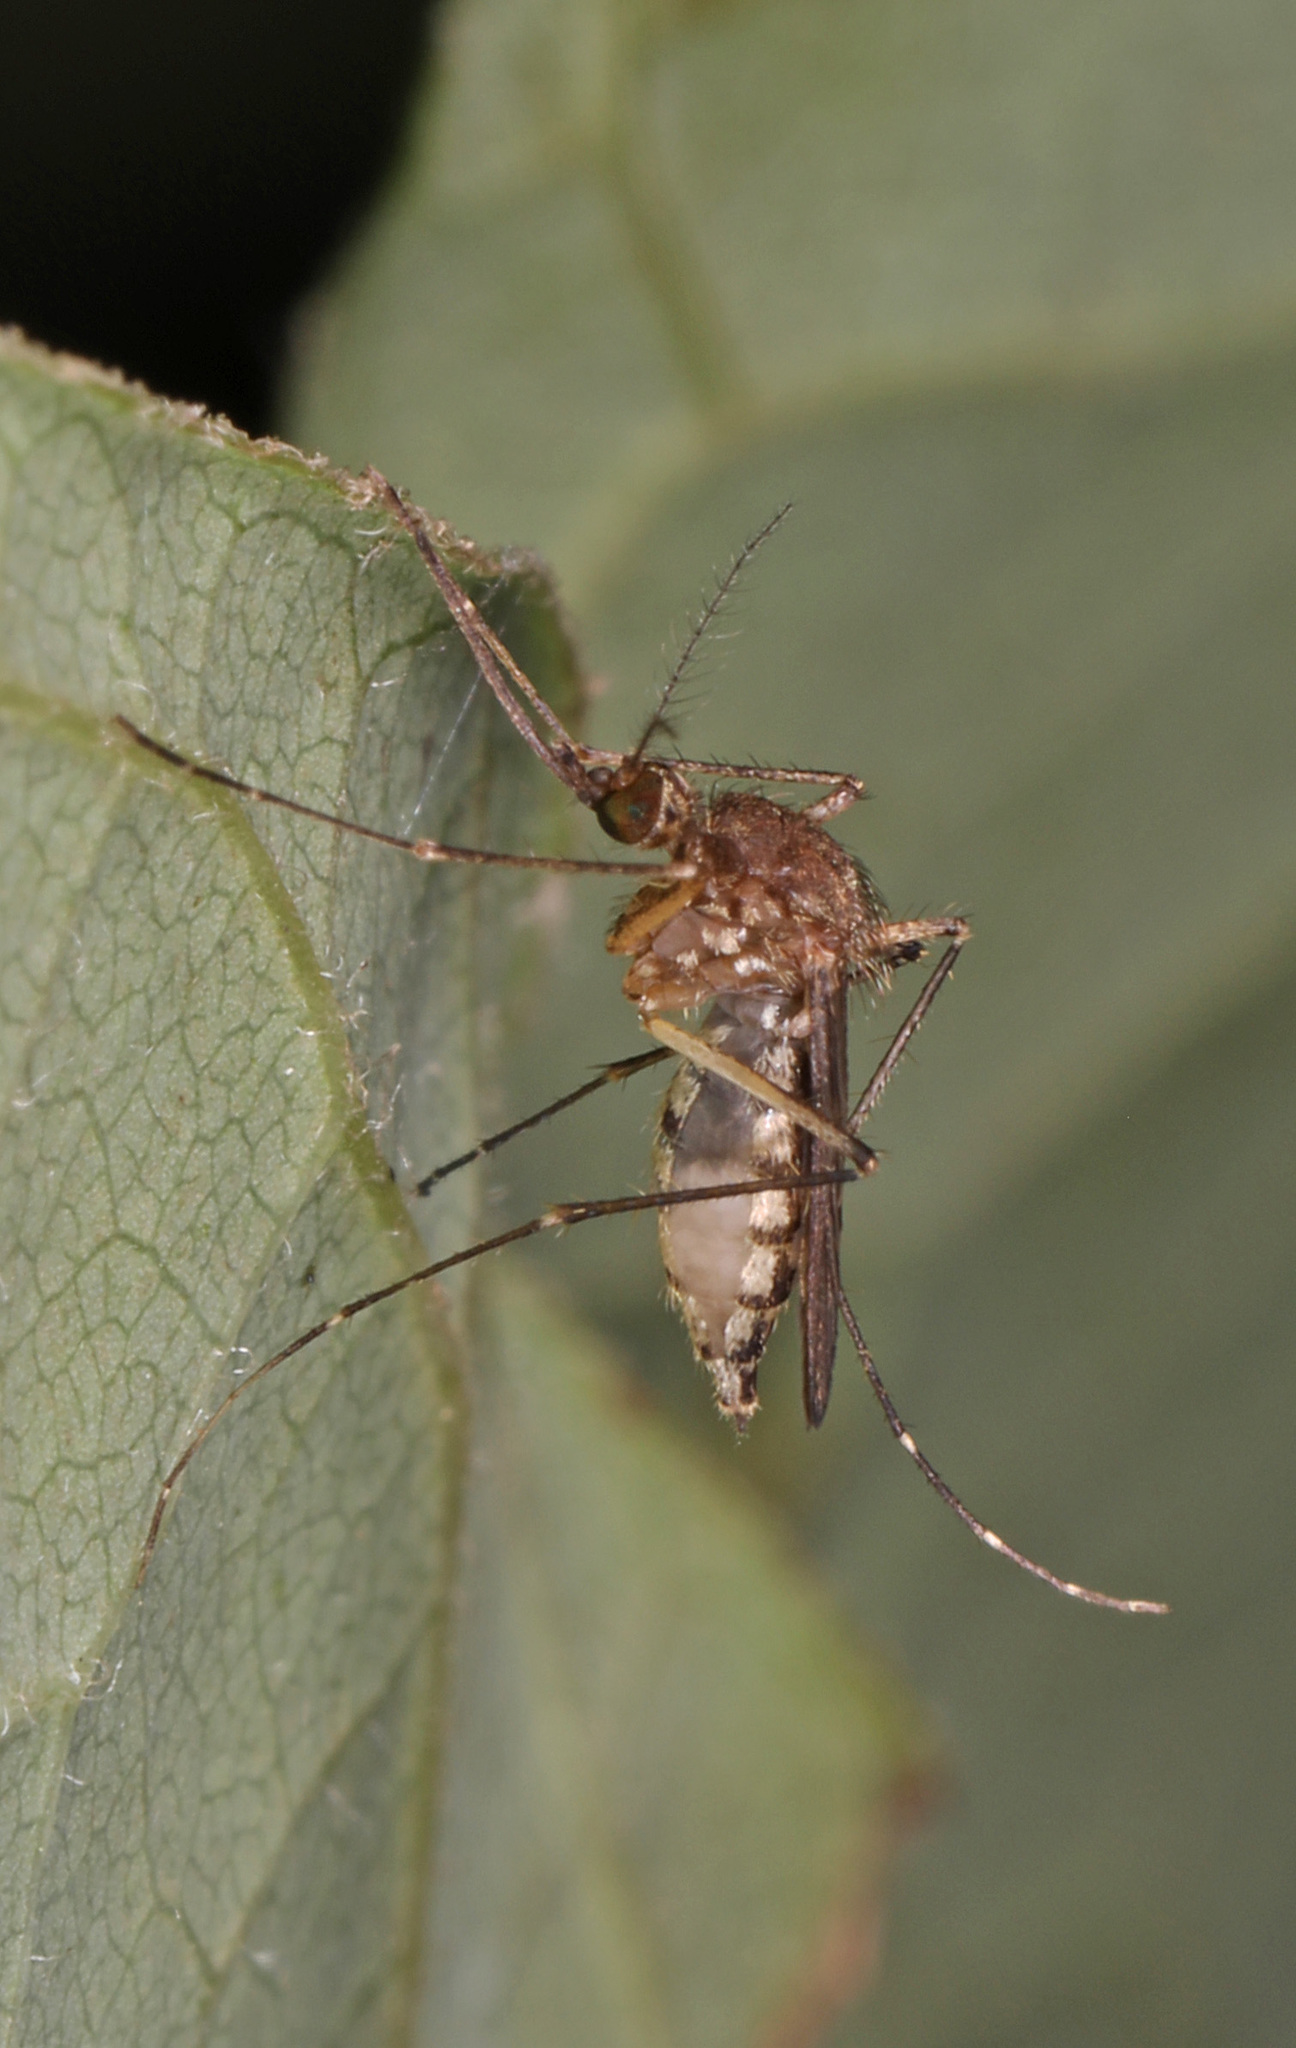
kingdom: Animalia
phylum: Arthropoda
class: Insecta
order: Diptera
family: Culicidae
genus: Aedes
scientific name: Aedes vexans
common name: Inland floodwater mosquito
